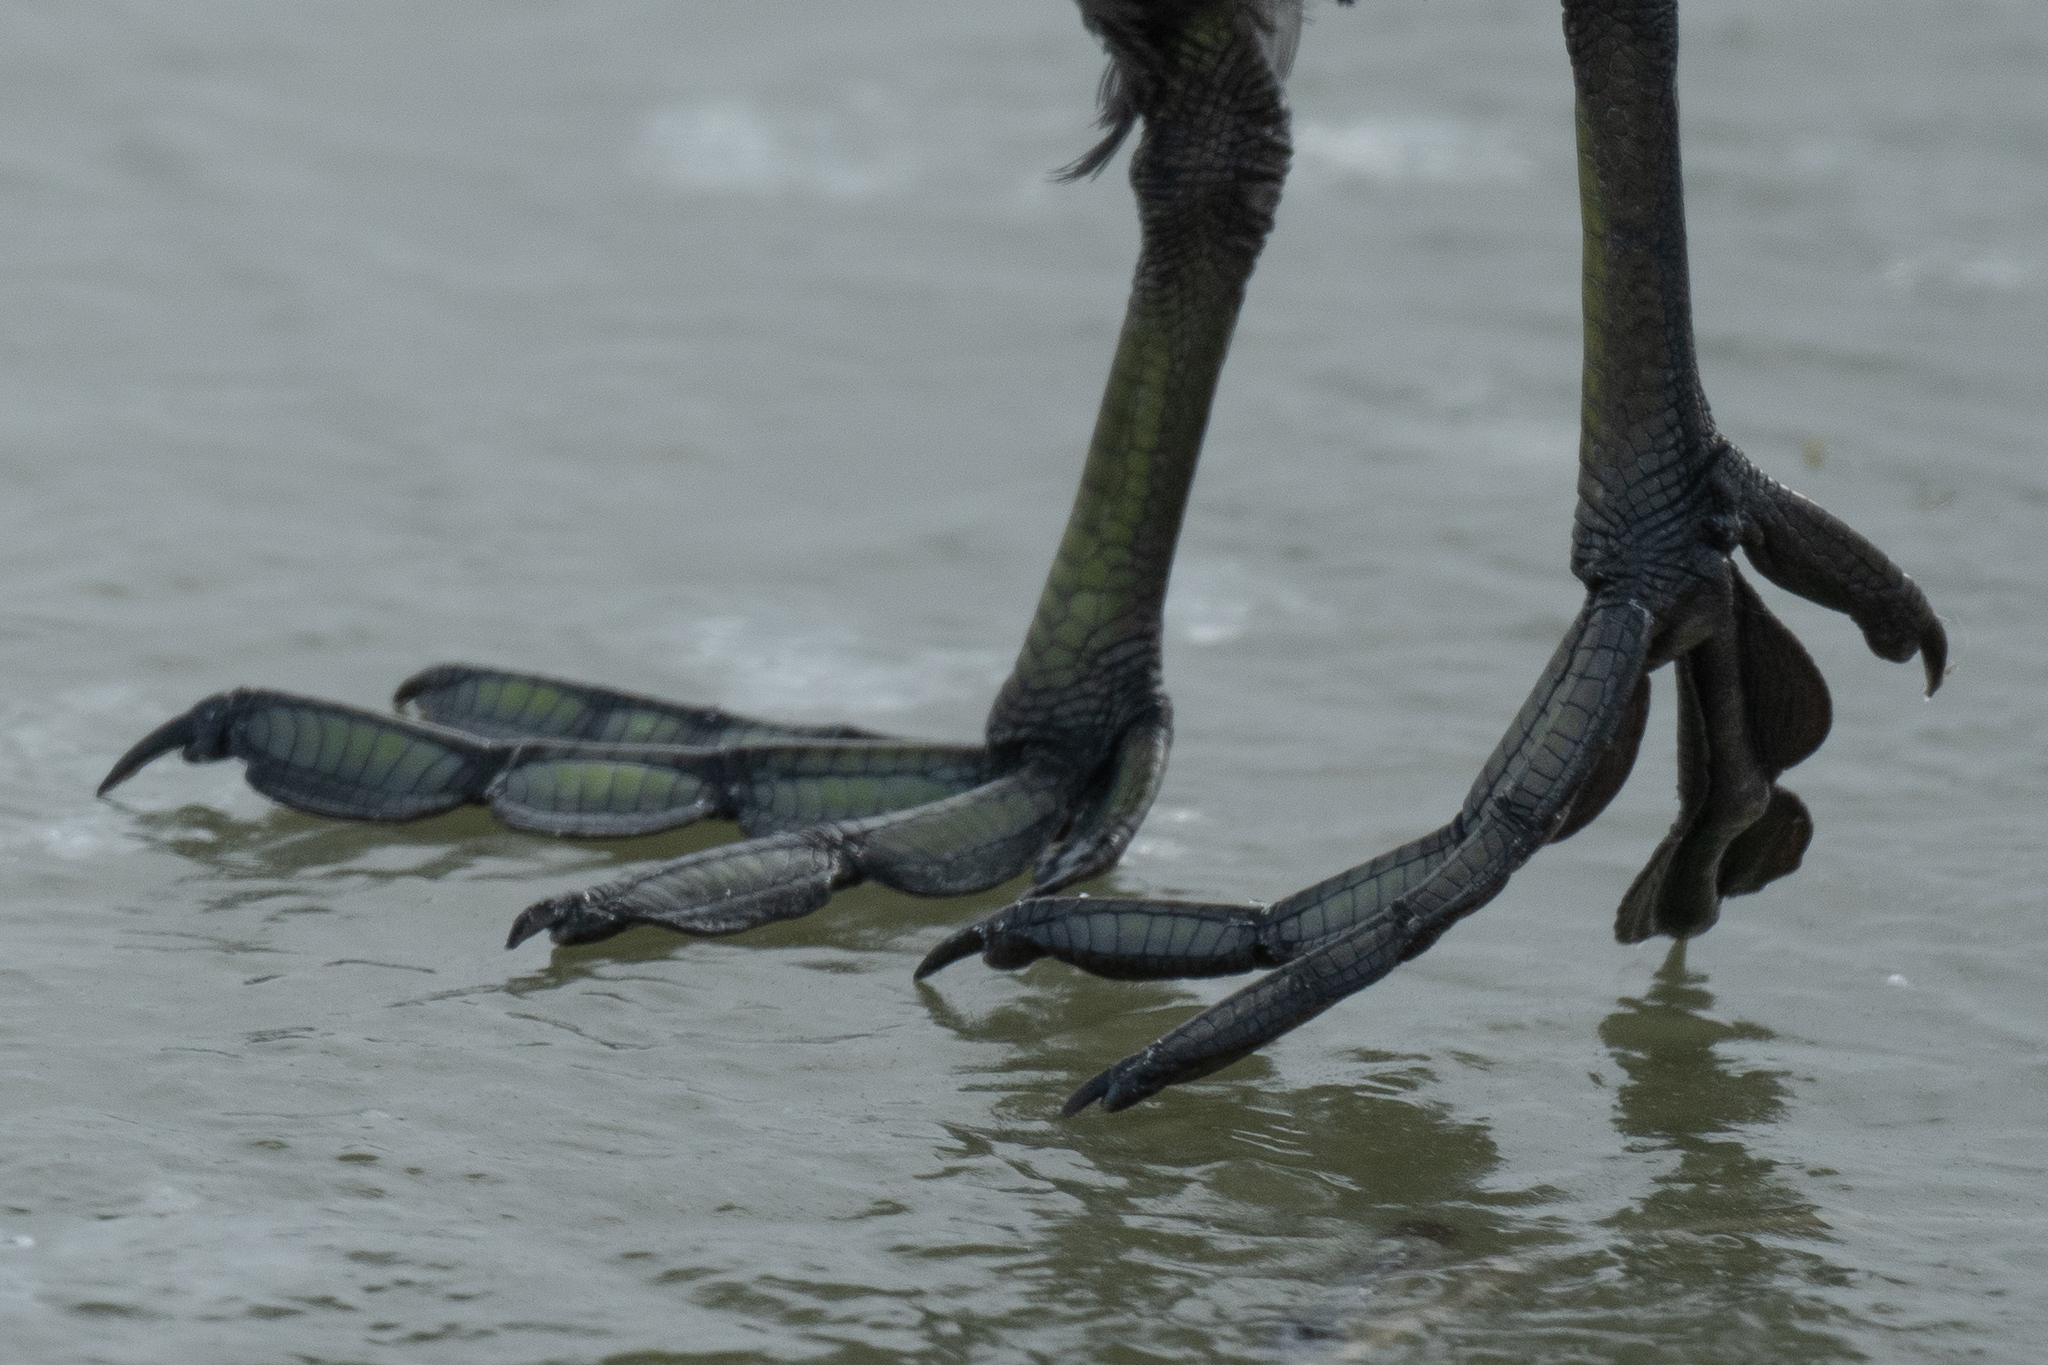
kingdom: Animalia
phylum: Chordata
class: Aves
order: Gruiformes
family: Rallidae
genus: Fulica
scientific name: Fulica americana
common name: American coot
